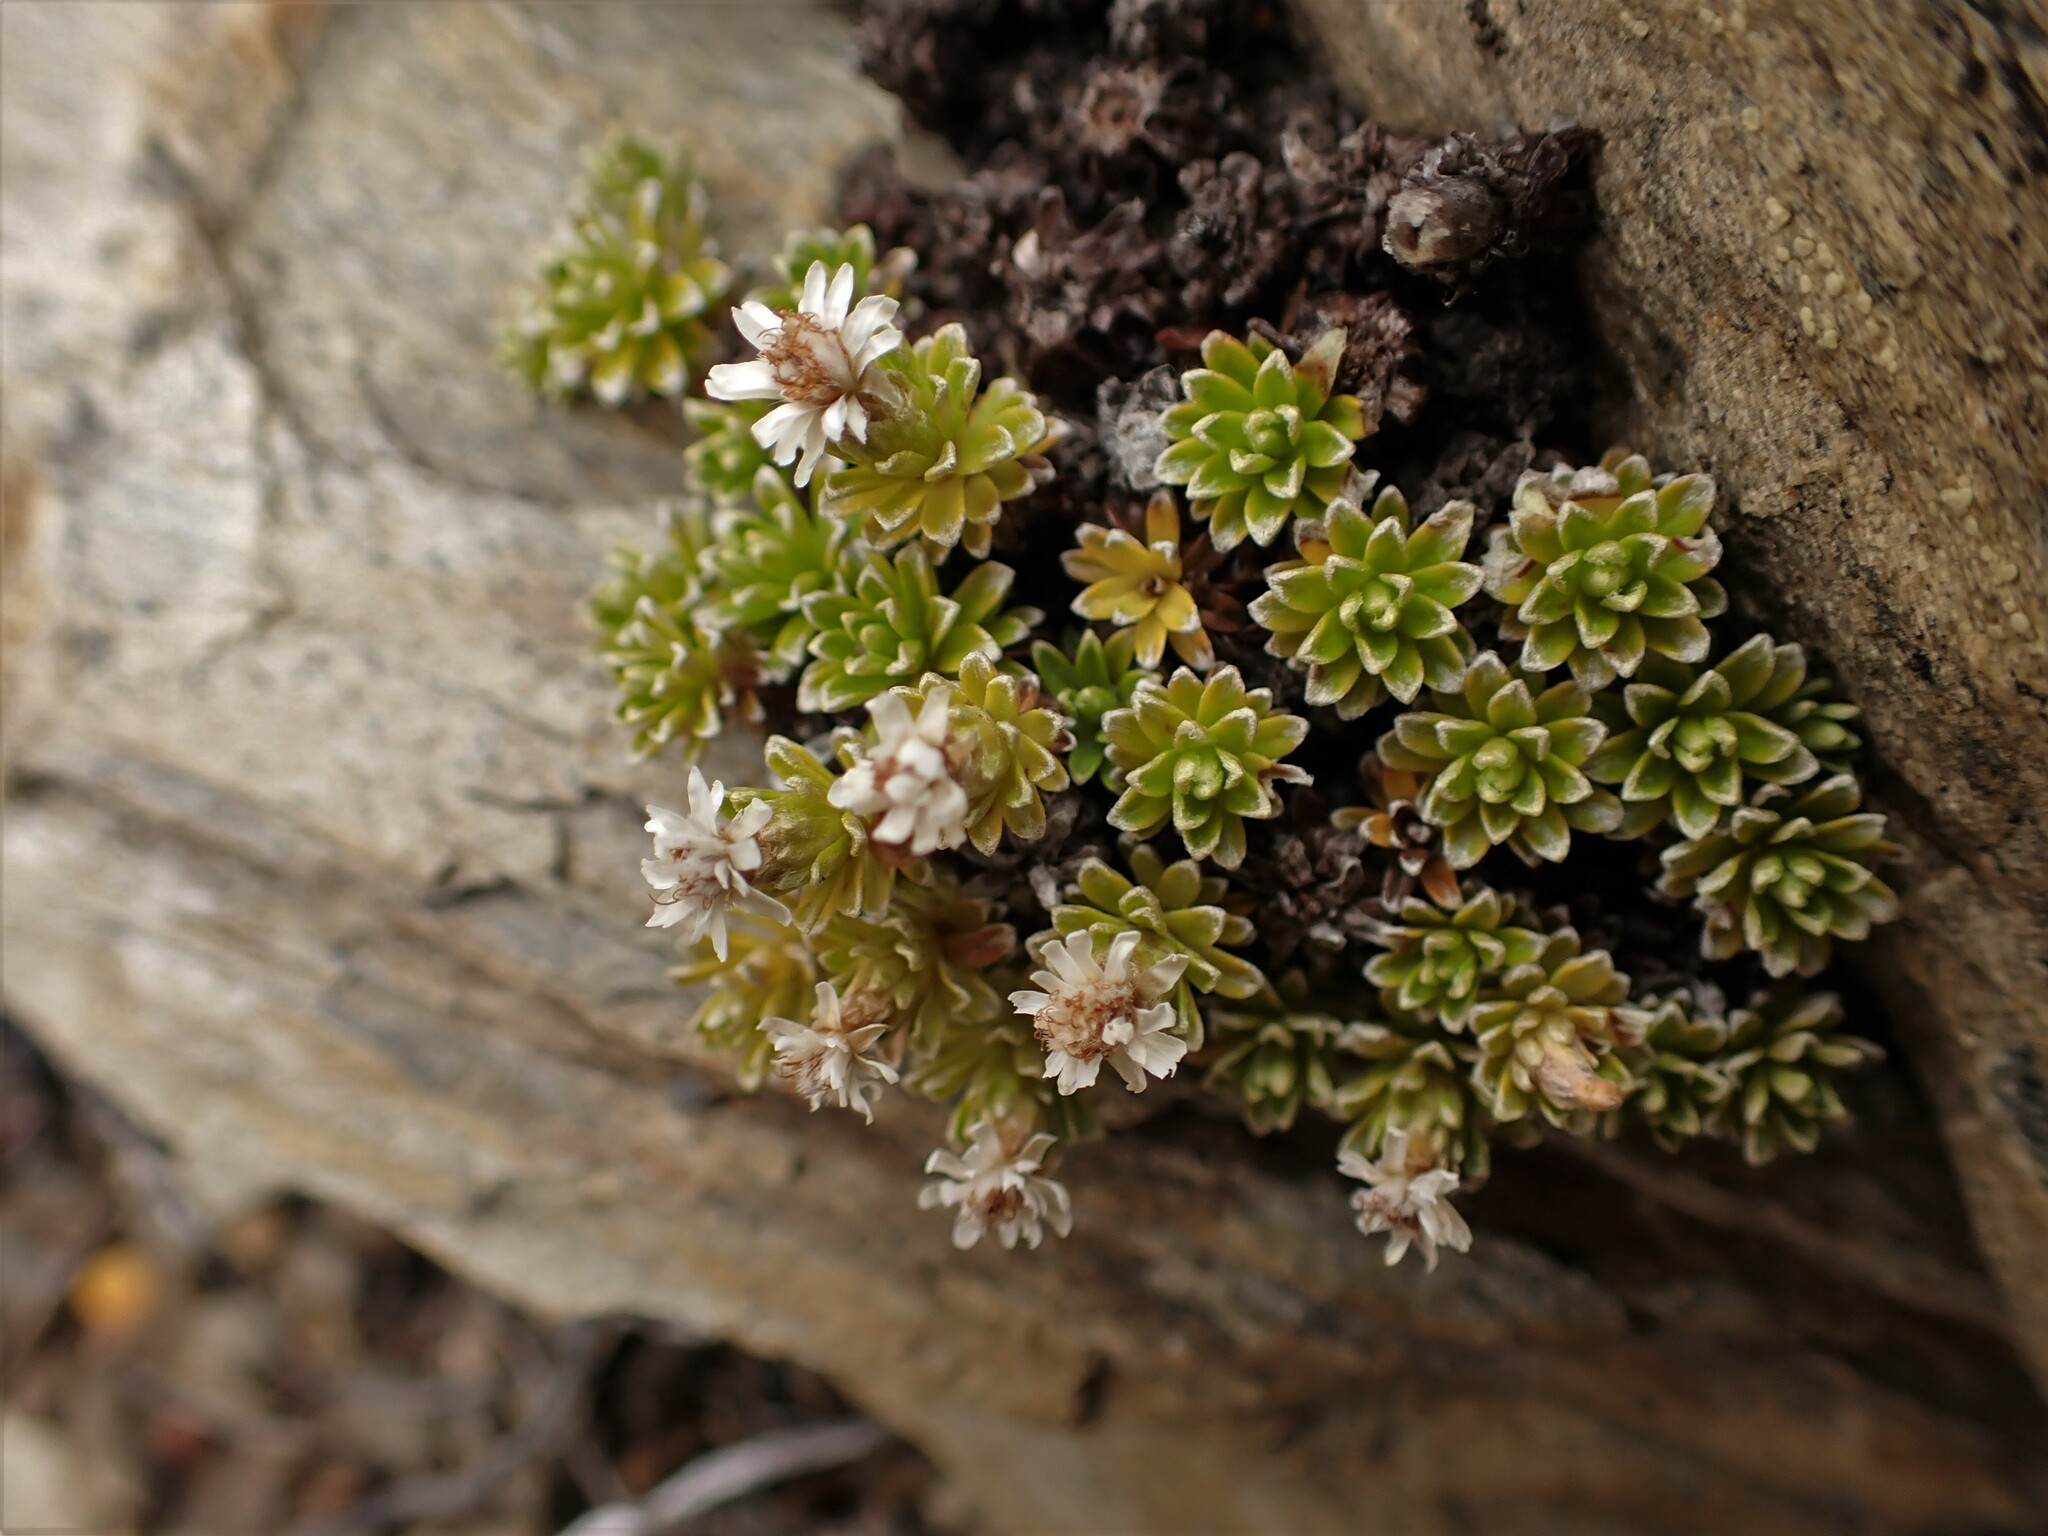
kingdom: Plantae
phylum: Tracheophyta
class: Magnoliopsida
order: Asterales
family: Asteraceae
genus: Raoulia
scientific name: Raoulia subsericea
